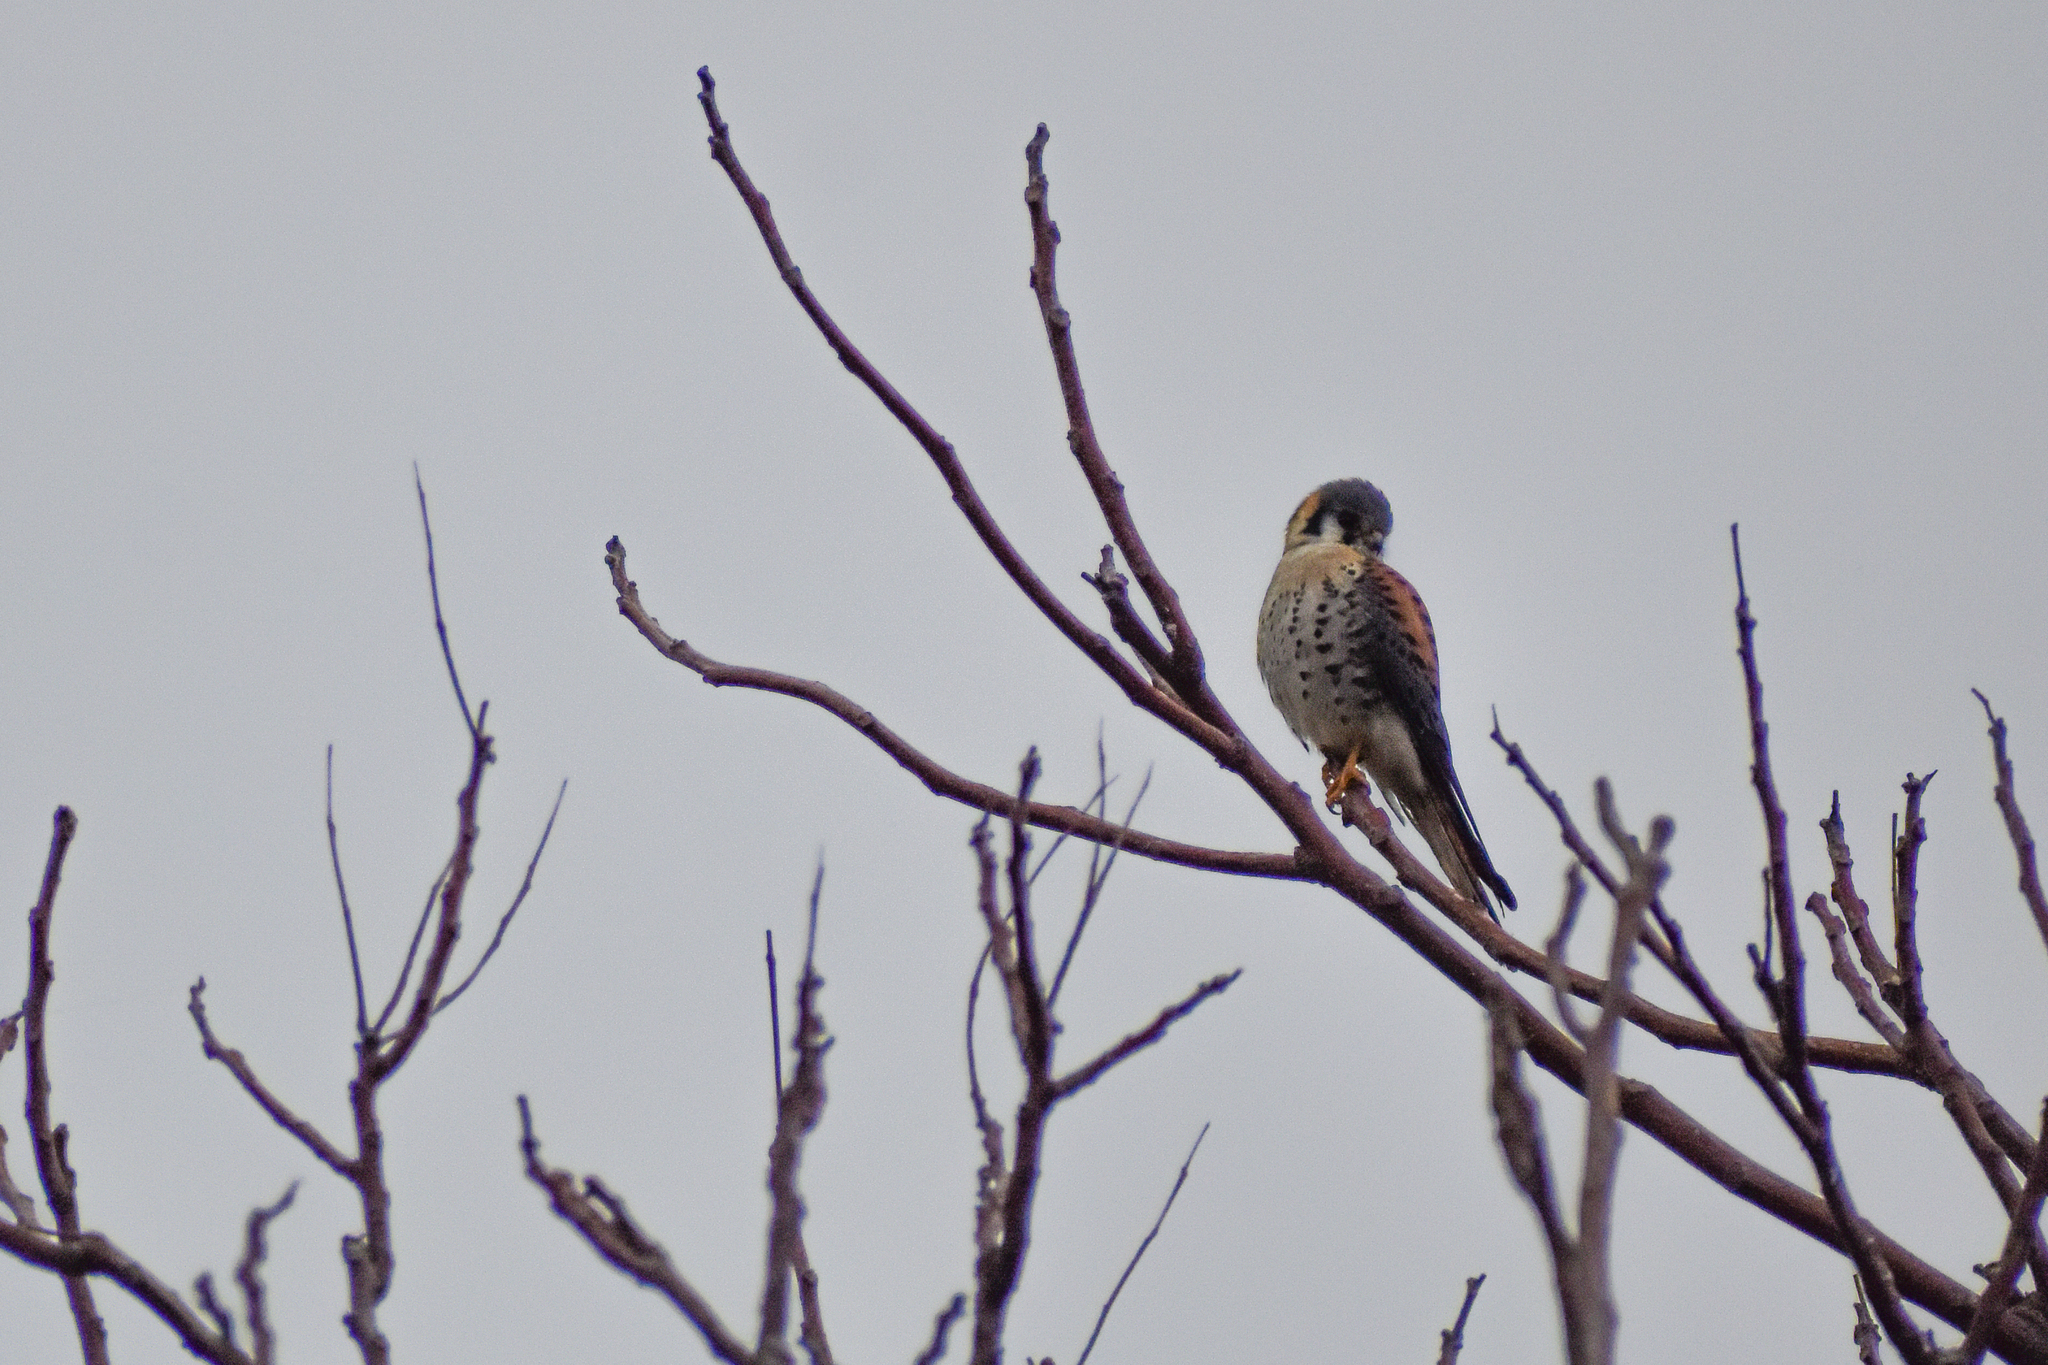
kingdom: Animalia
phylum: Chordata
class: Aves
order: Falconiformes
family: Falconidae
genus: Falco
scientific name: Falco sparverius
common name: American kestrel
